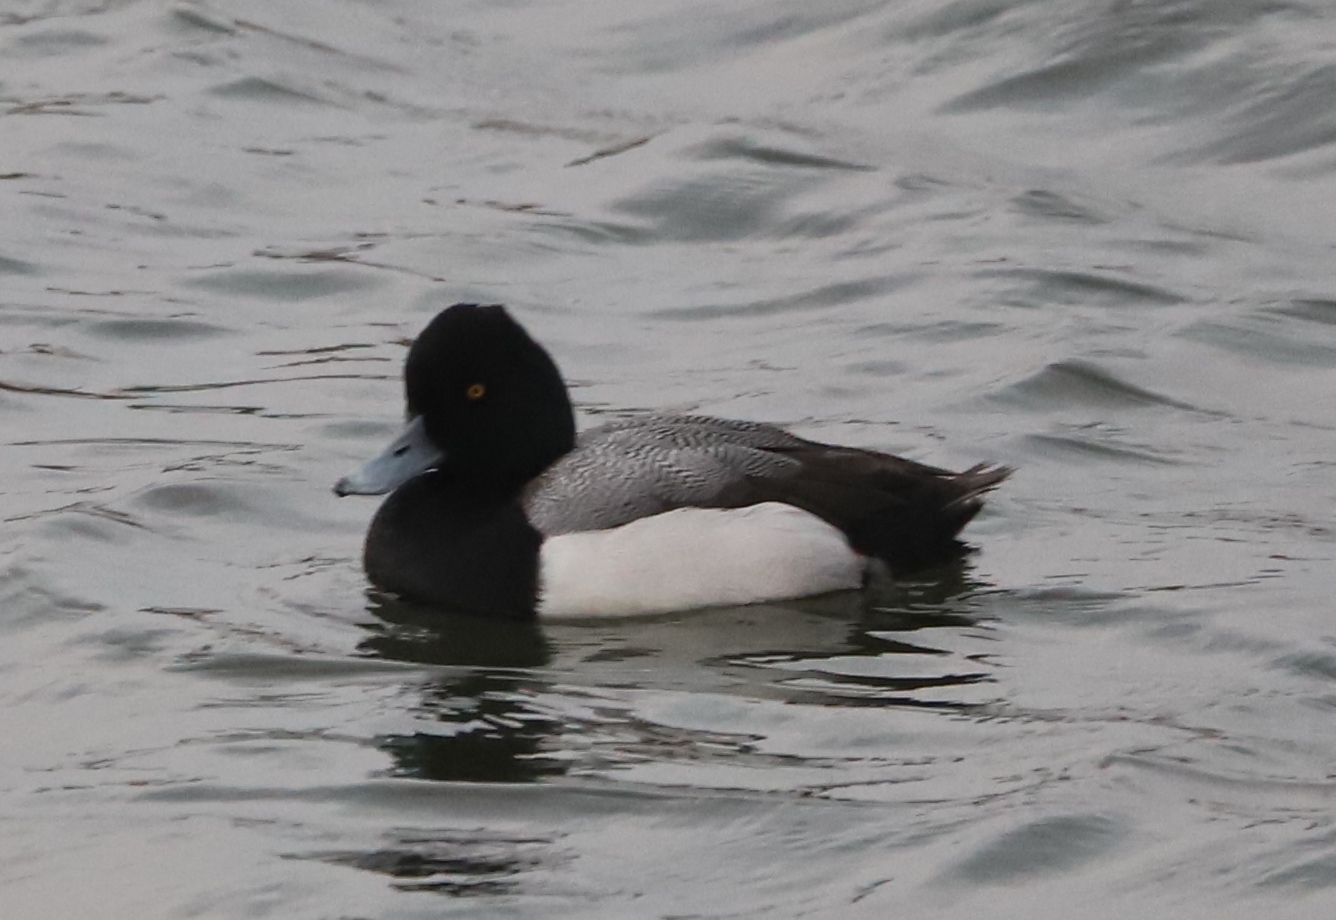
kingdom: Animalia
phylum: Chordata
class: Aves
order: Anseriformes
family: Anatidae
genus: Aythya
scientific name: Aythya affinis
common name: Lesser scaup
